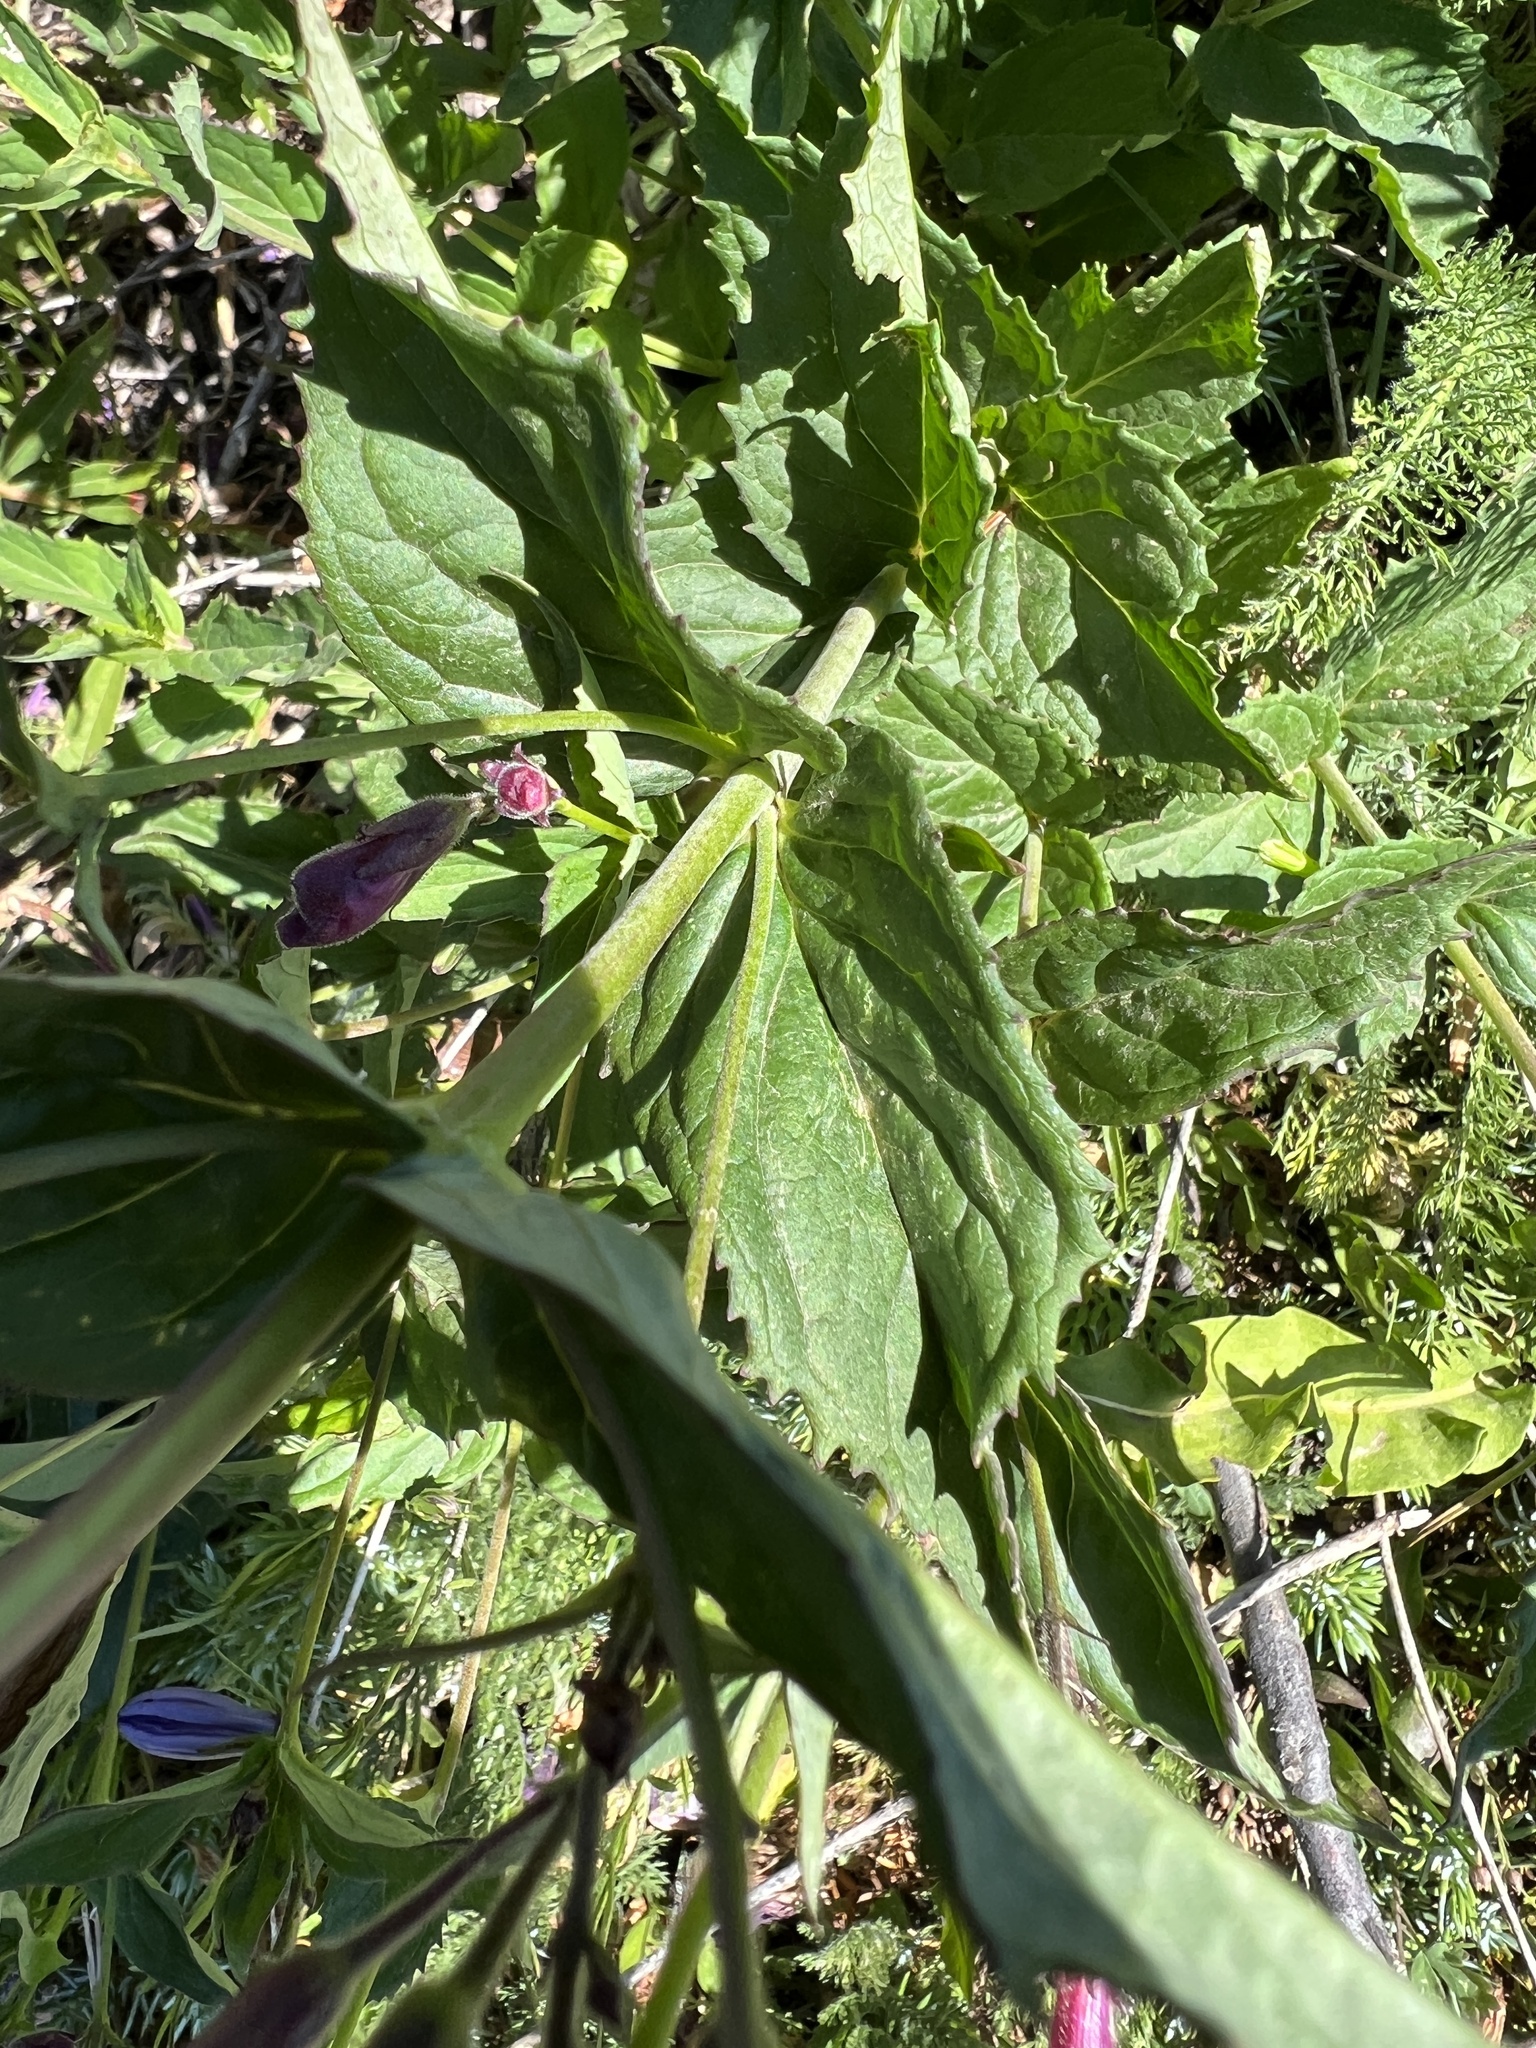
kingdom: Plantae
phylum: Tracheophyta
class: Magnoliopsida
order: Lamiales
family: Plantaginaceae
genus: Nothochelone
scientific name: Nothochelone nemorosa
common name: Woodland beardtongue
